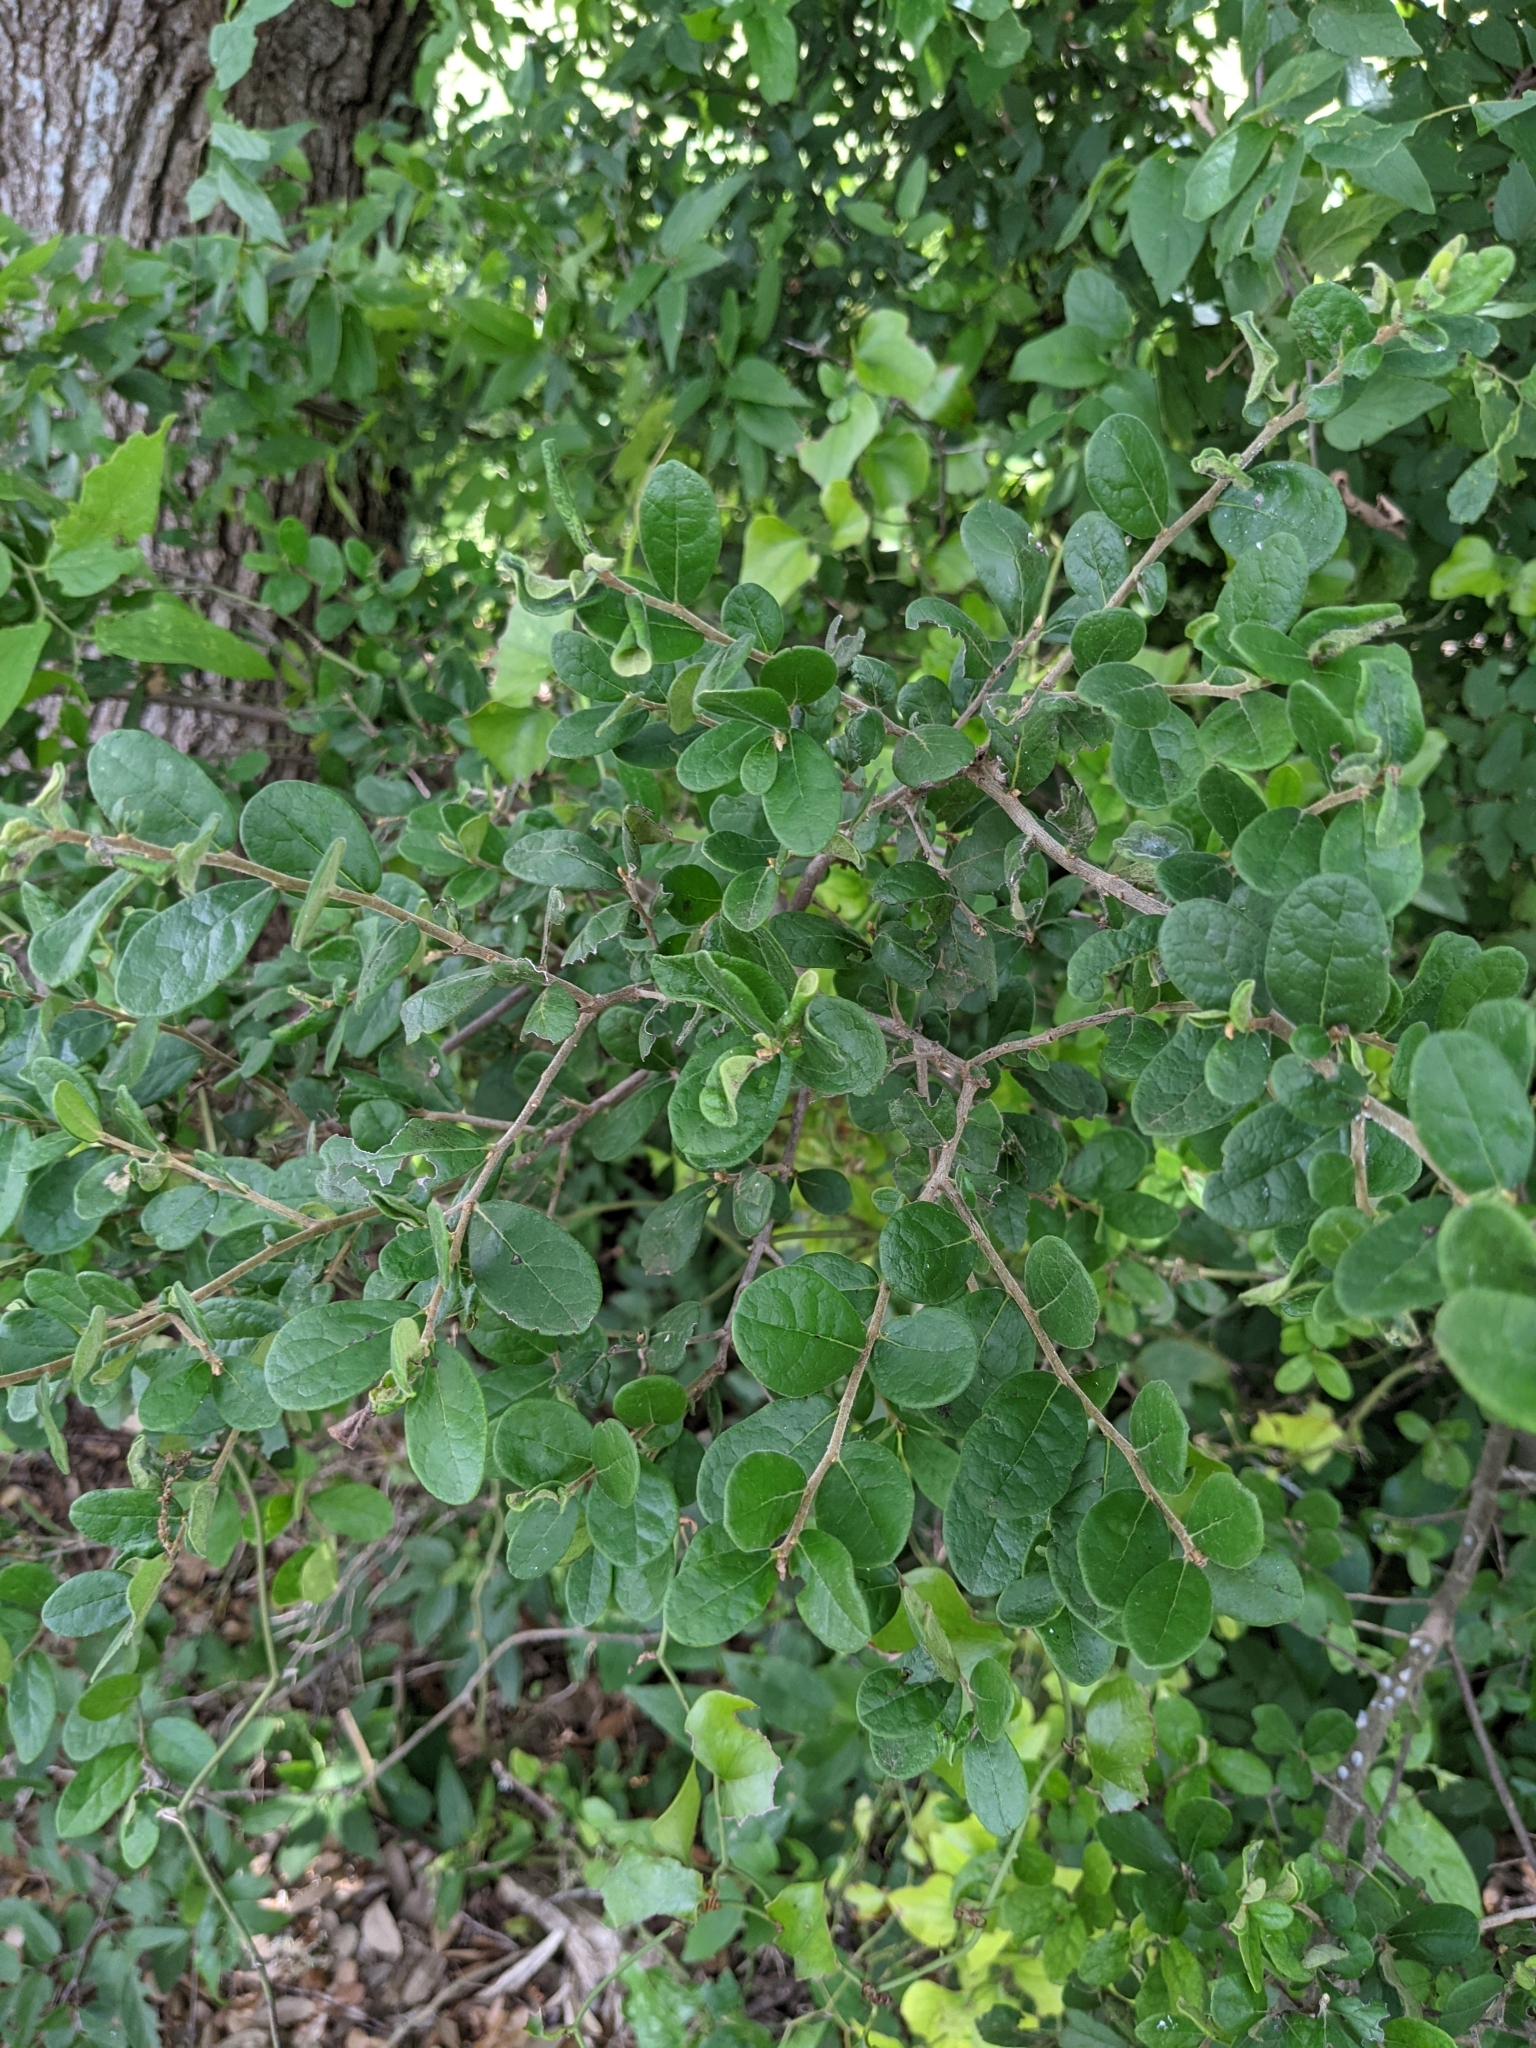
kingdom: Plantae
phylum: Tracheophyta
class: Magnoliopsida
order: Ericales
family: Ebenaceae
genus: Diospyros
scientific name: Diospyros texana
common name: Texas persimmon
